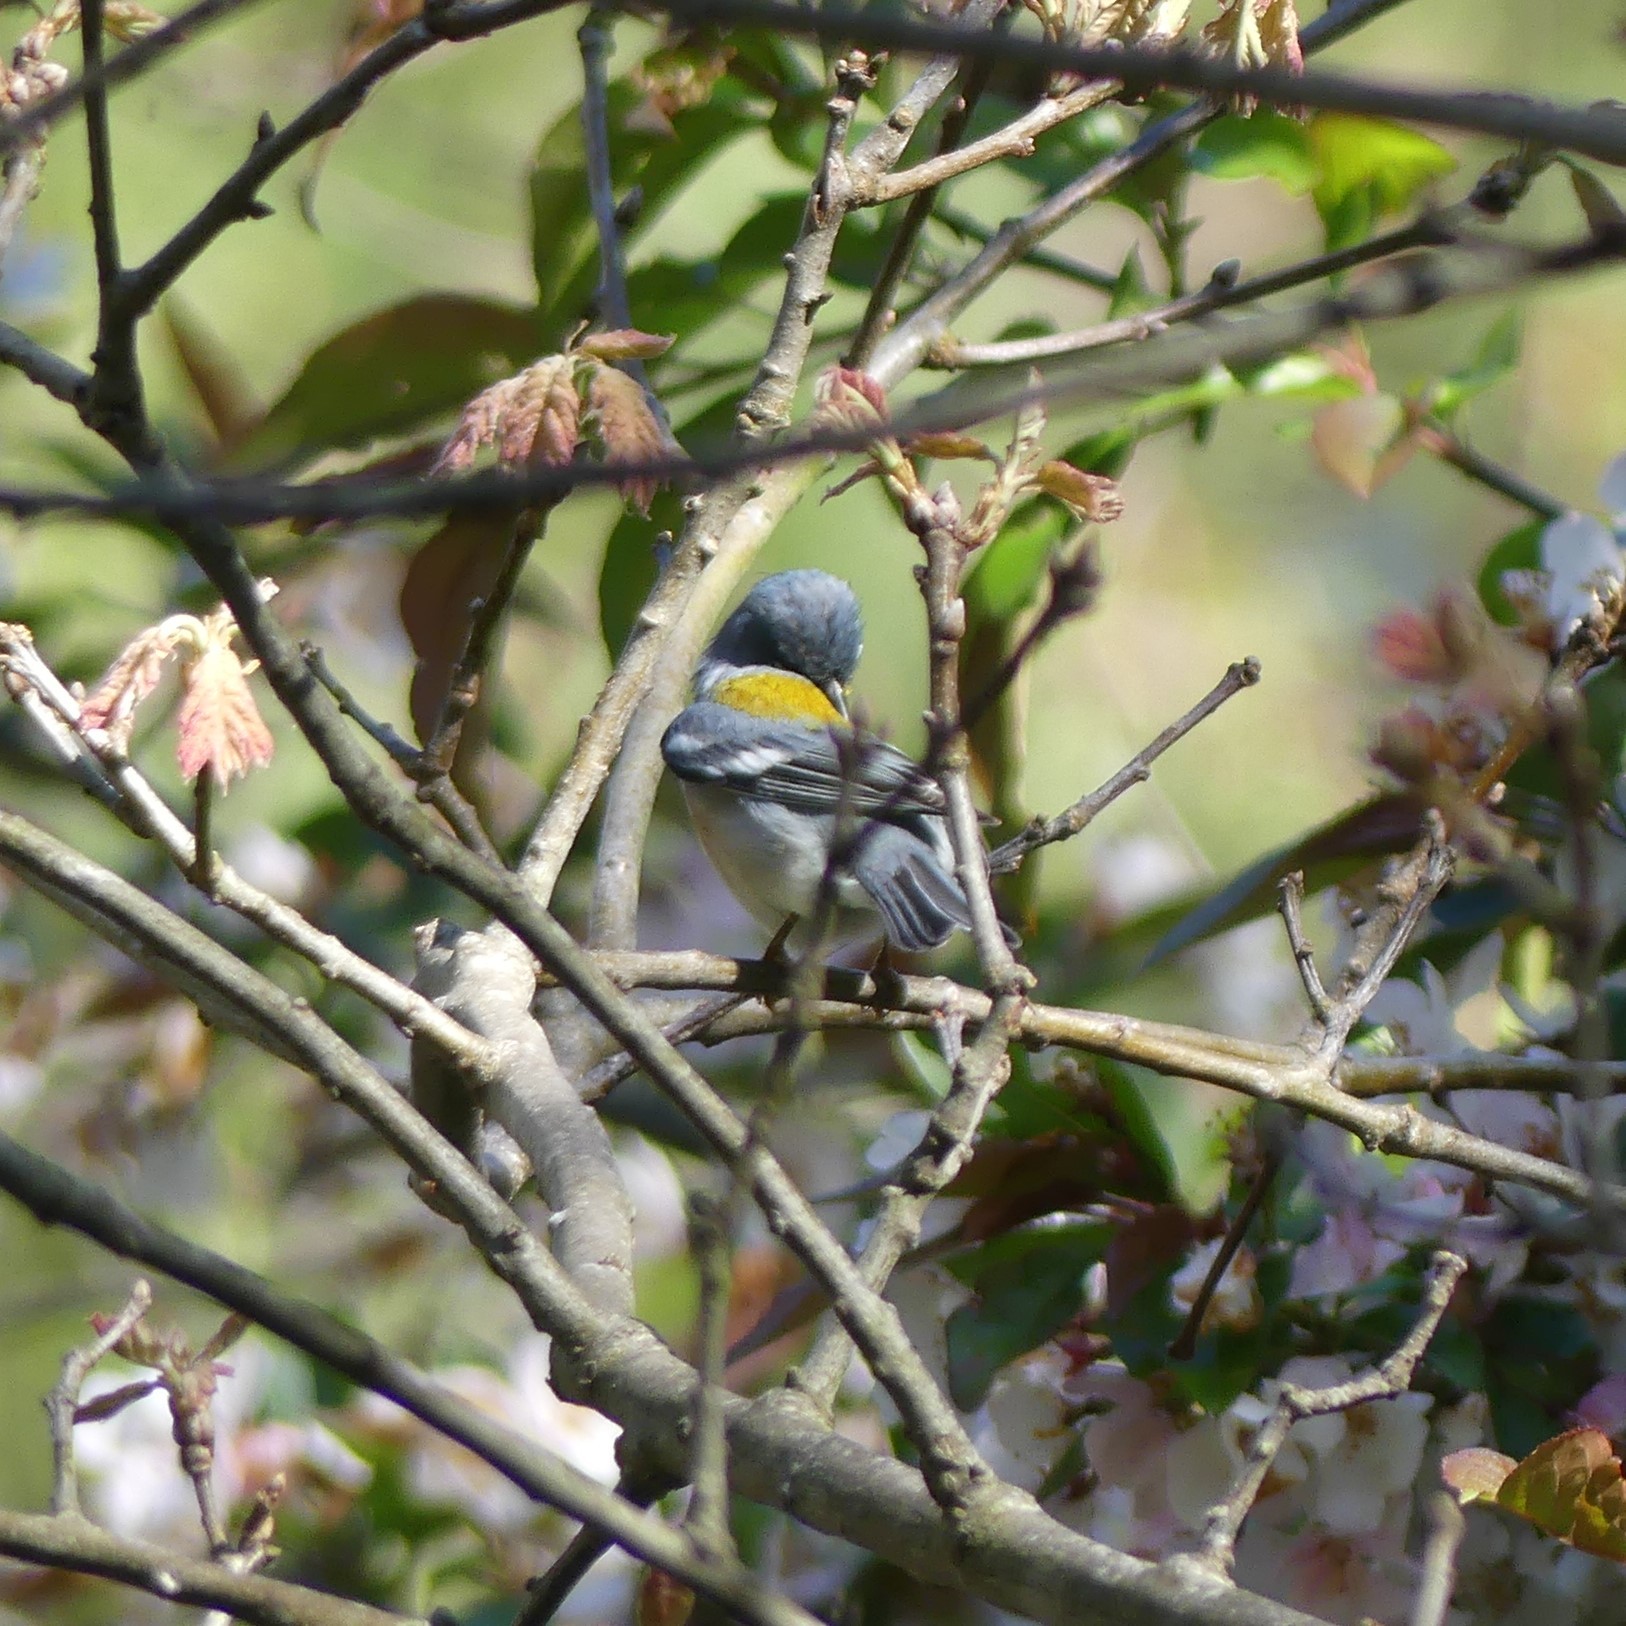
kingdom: Animalia
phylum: Chordata
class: Aves
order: Passeriformes
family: Parulidae
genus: Setophaga
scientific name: Setophaga americana
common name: Northern parula
